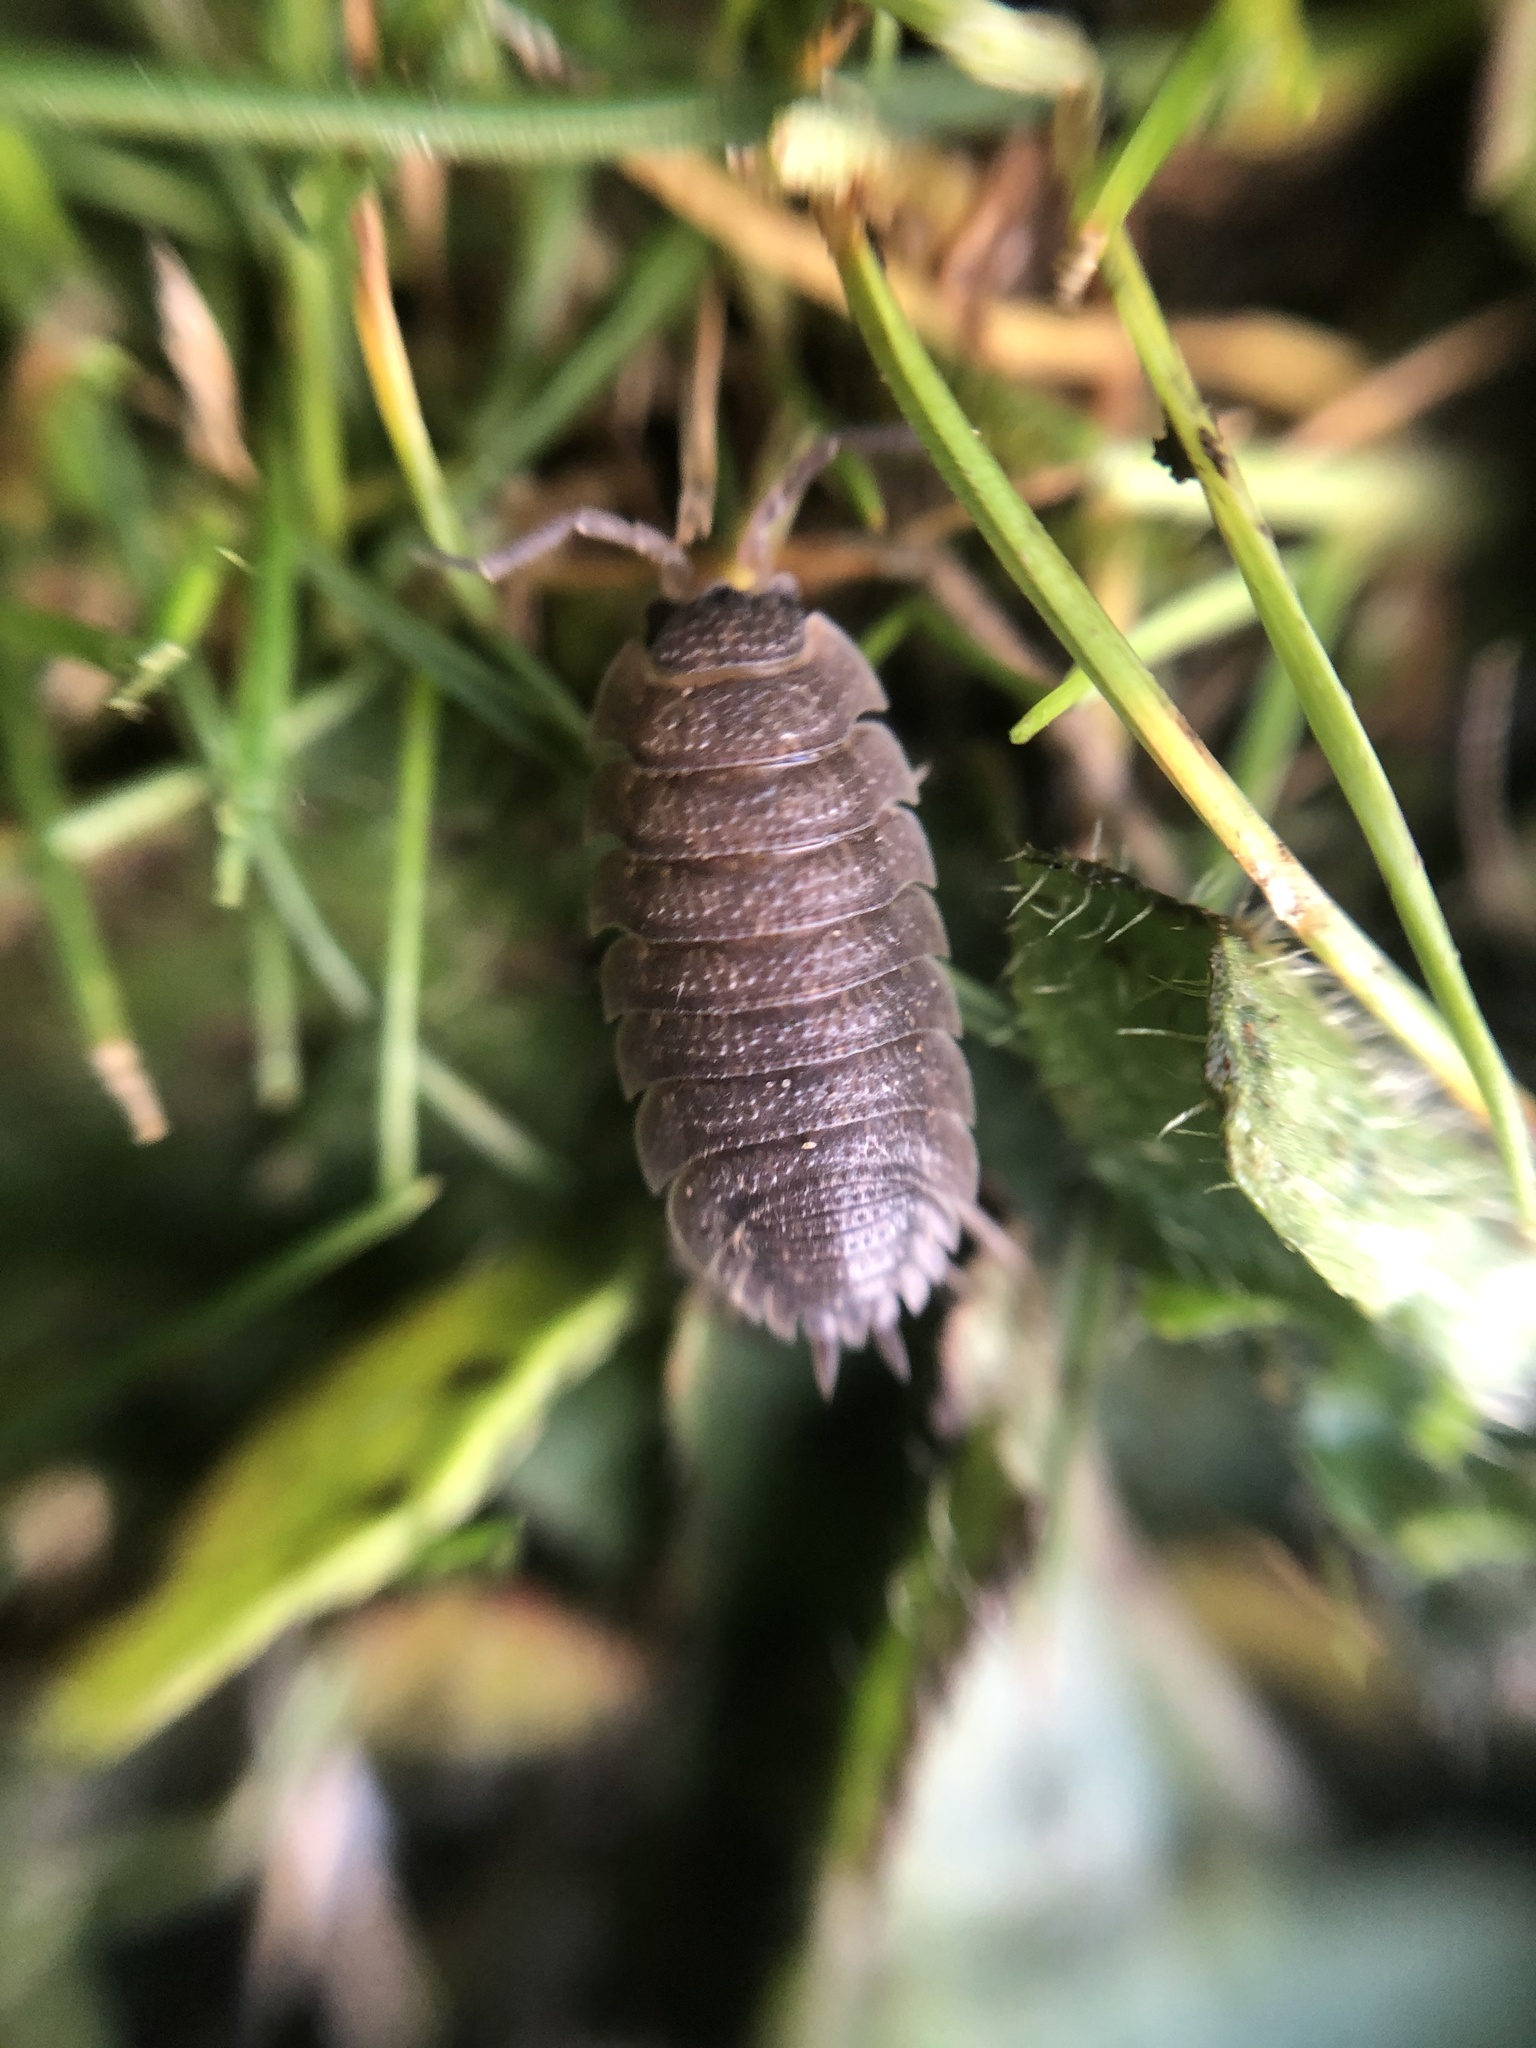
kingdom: Animalia
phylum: Arthropoda
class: Malacostraca
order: Isopoda
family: Porcellionidae
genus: Porcellio
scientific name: Porcellio scaber
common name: Common rough woodlouse
